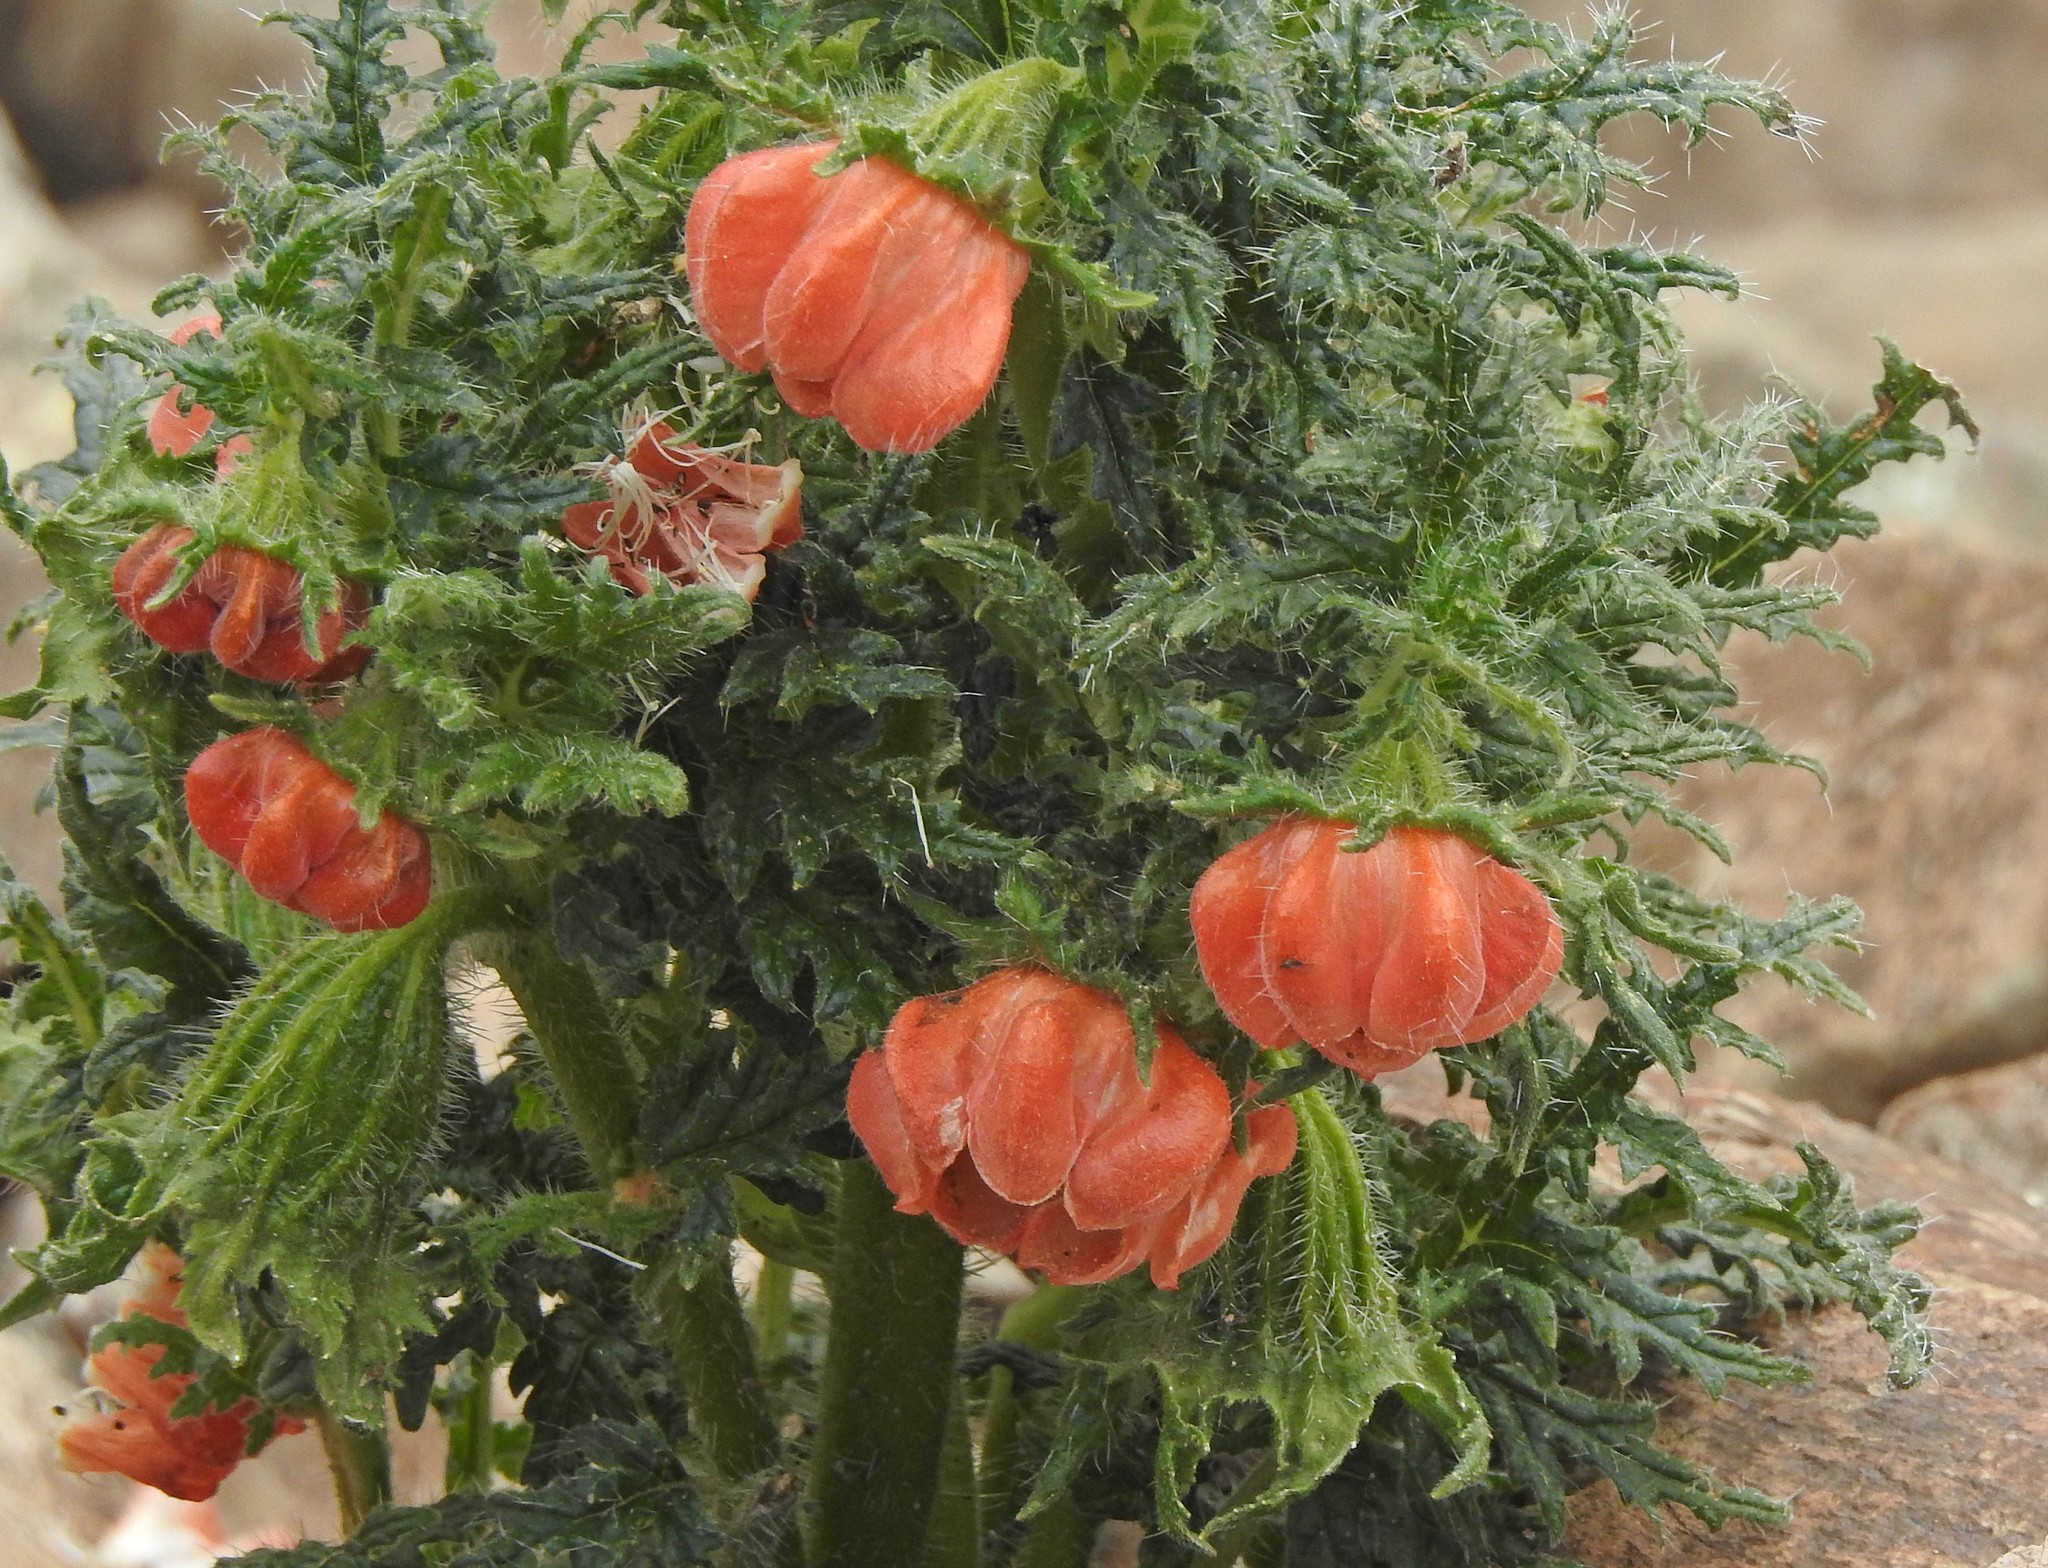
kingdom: Plantae
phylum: Tracheophyta
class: Magnoliopsida
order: Cornales
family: Loasaceae
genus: Caiophora
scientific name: Caiophora chuquitensis
